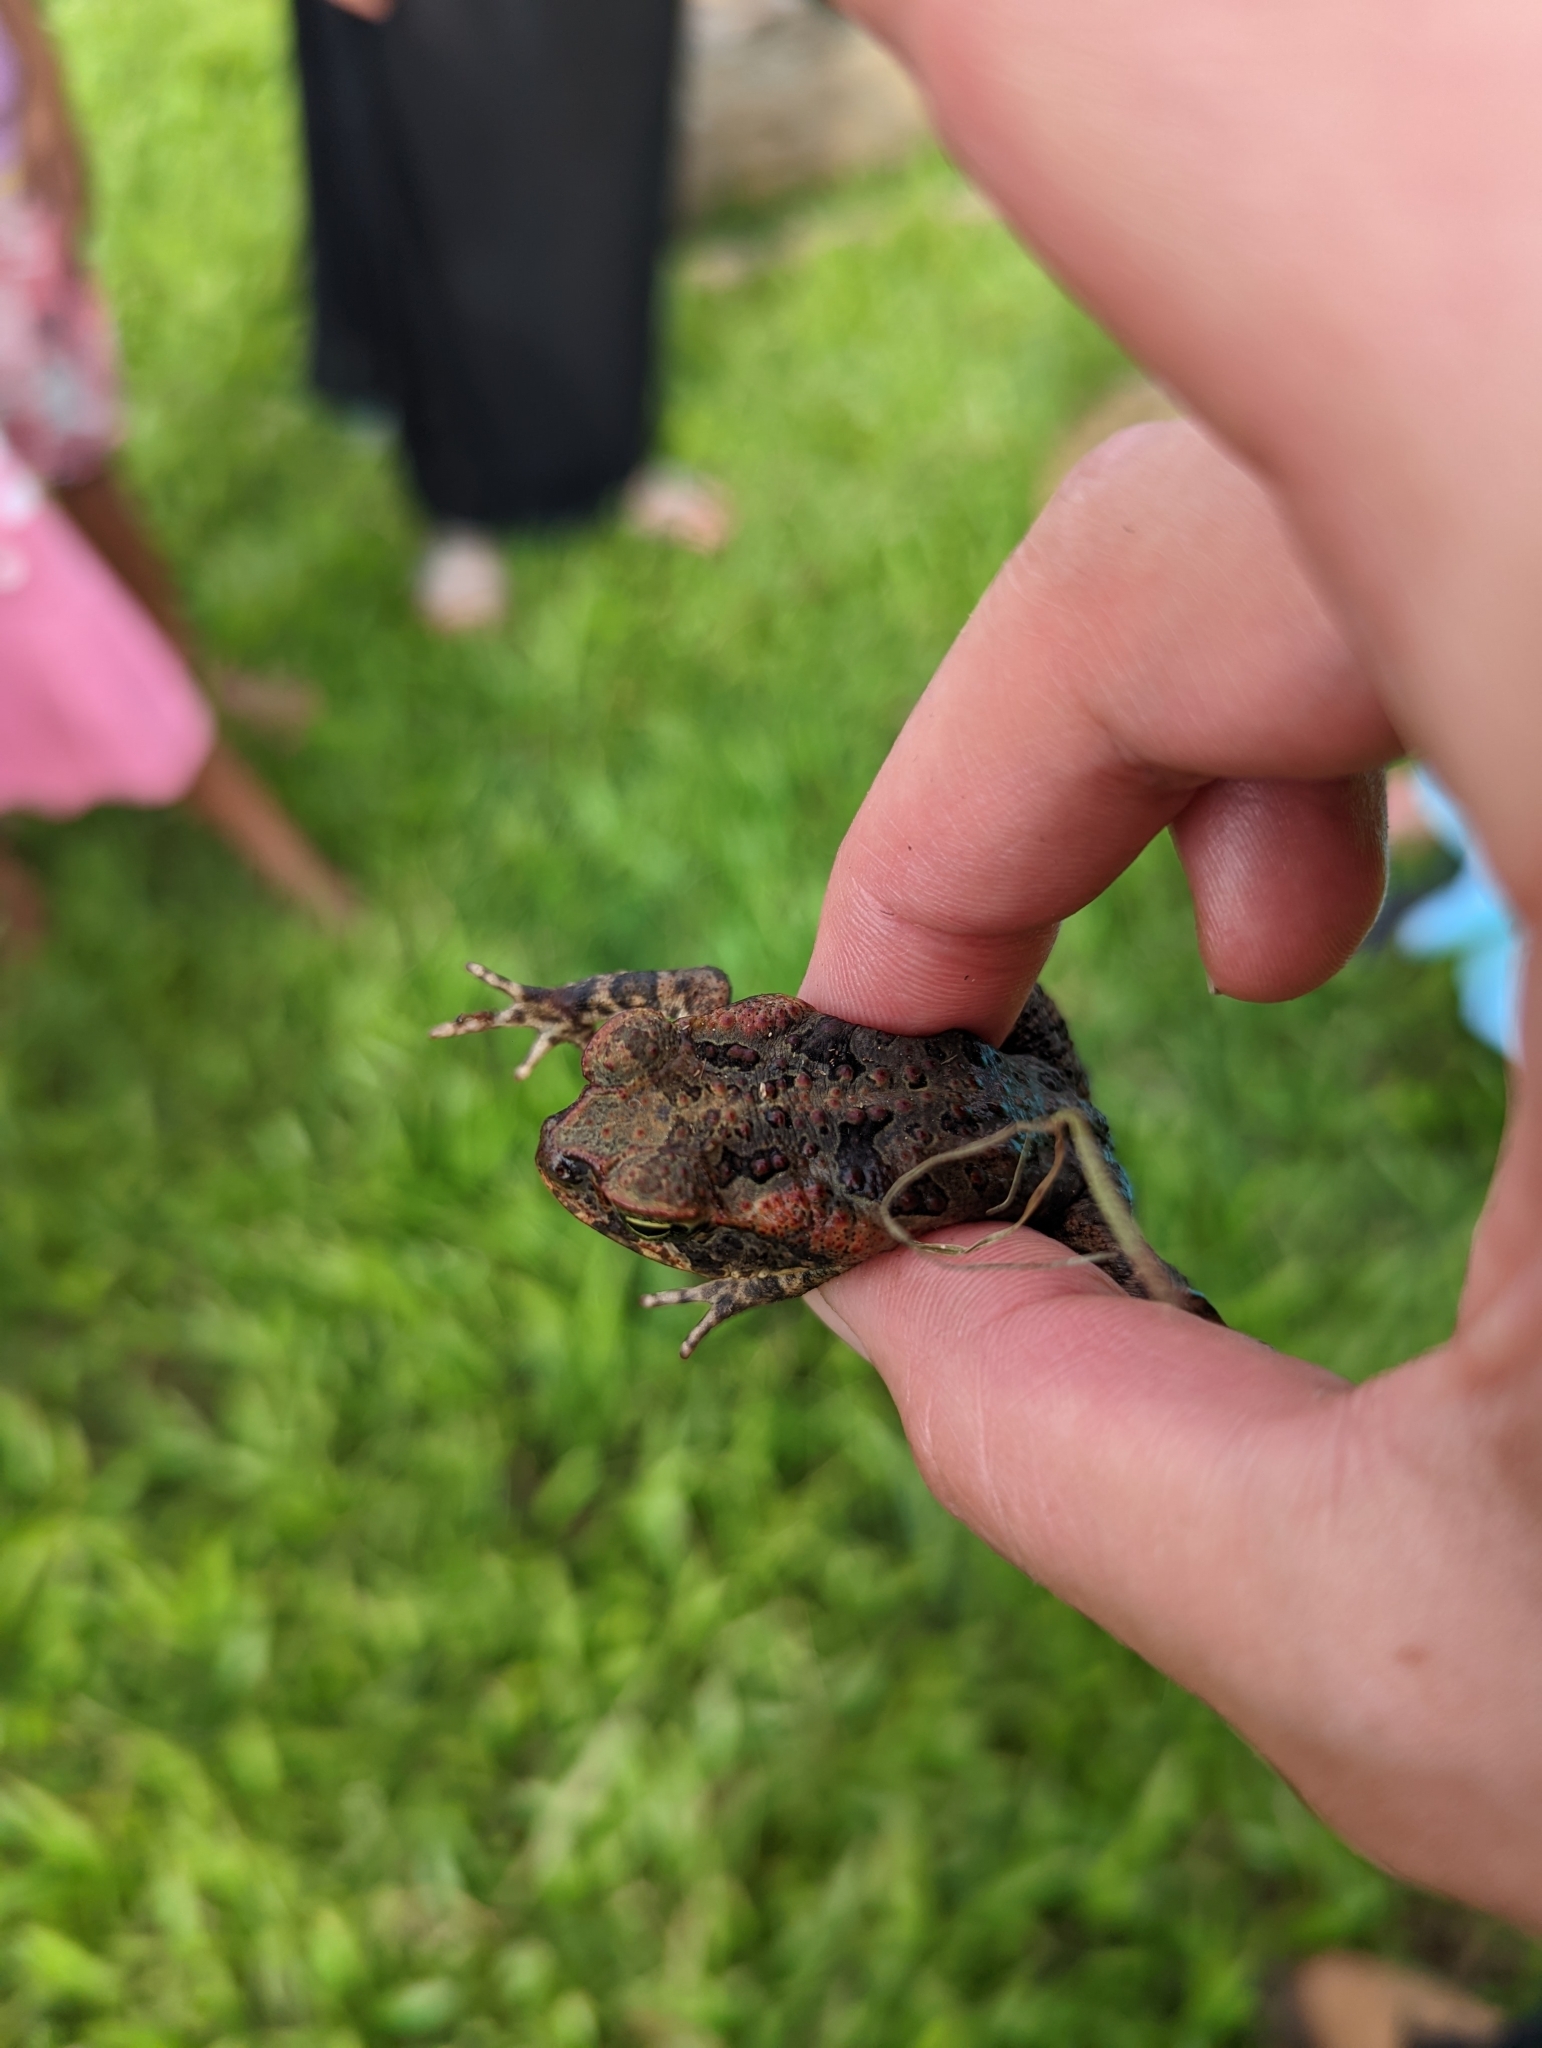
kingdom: Animalia
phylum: Chordata
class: Amphibia
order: Anura
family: Bufonidae
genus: Rhinella
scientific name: Rhinella marina
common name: Cane toad
